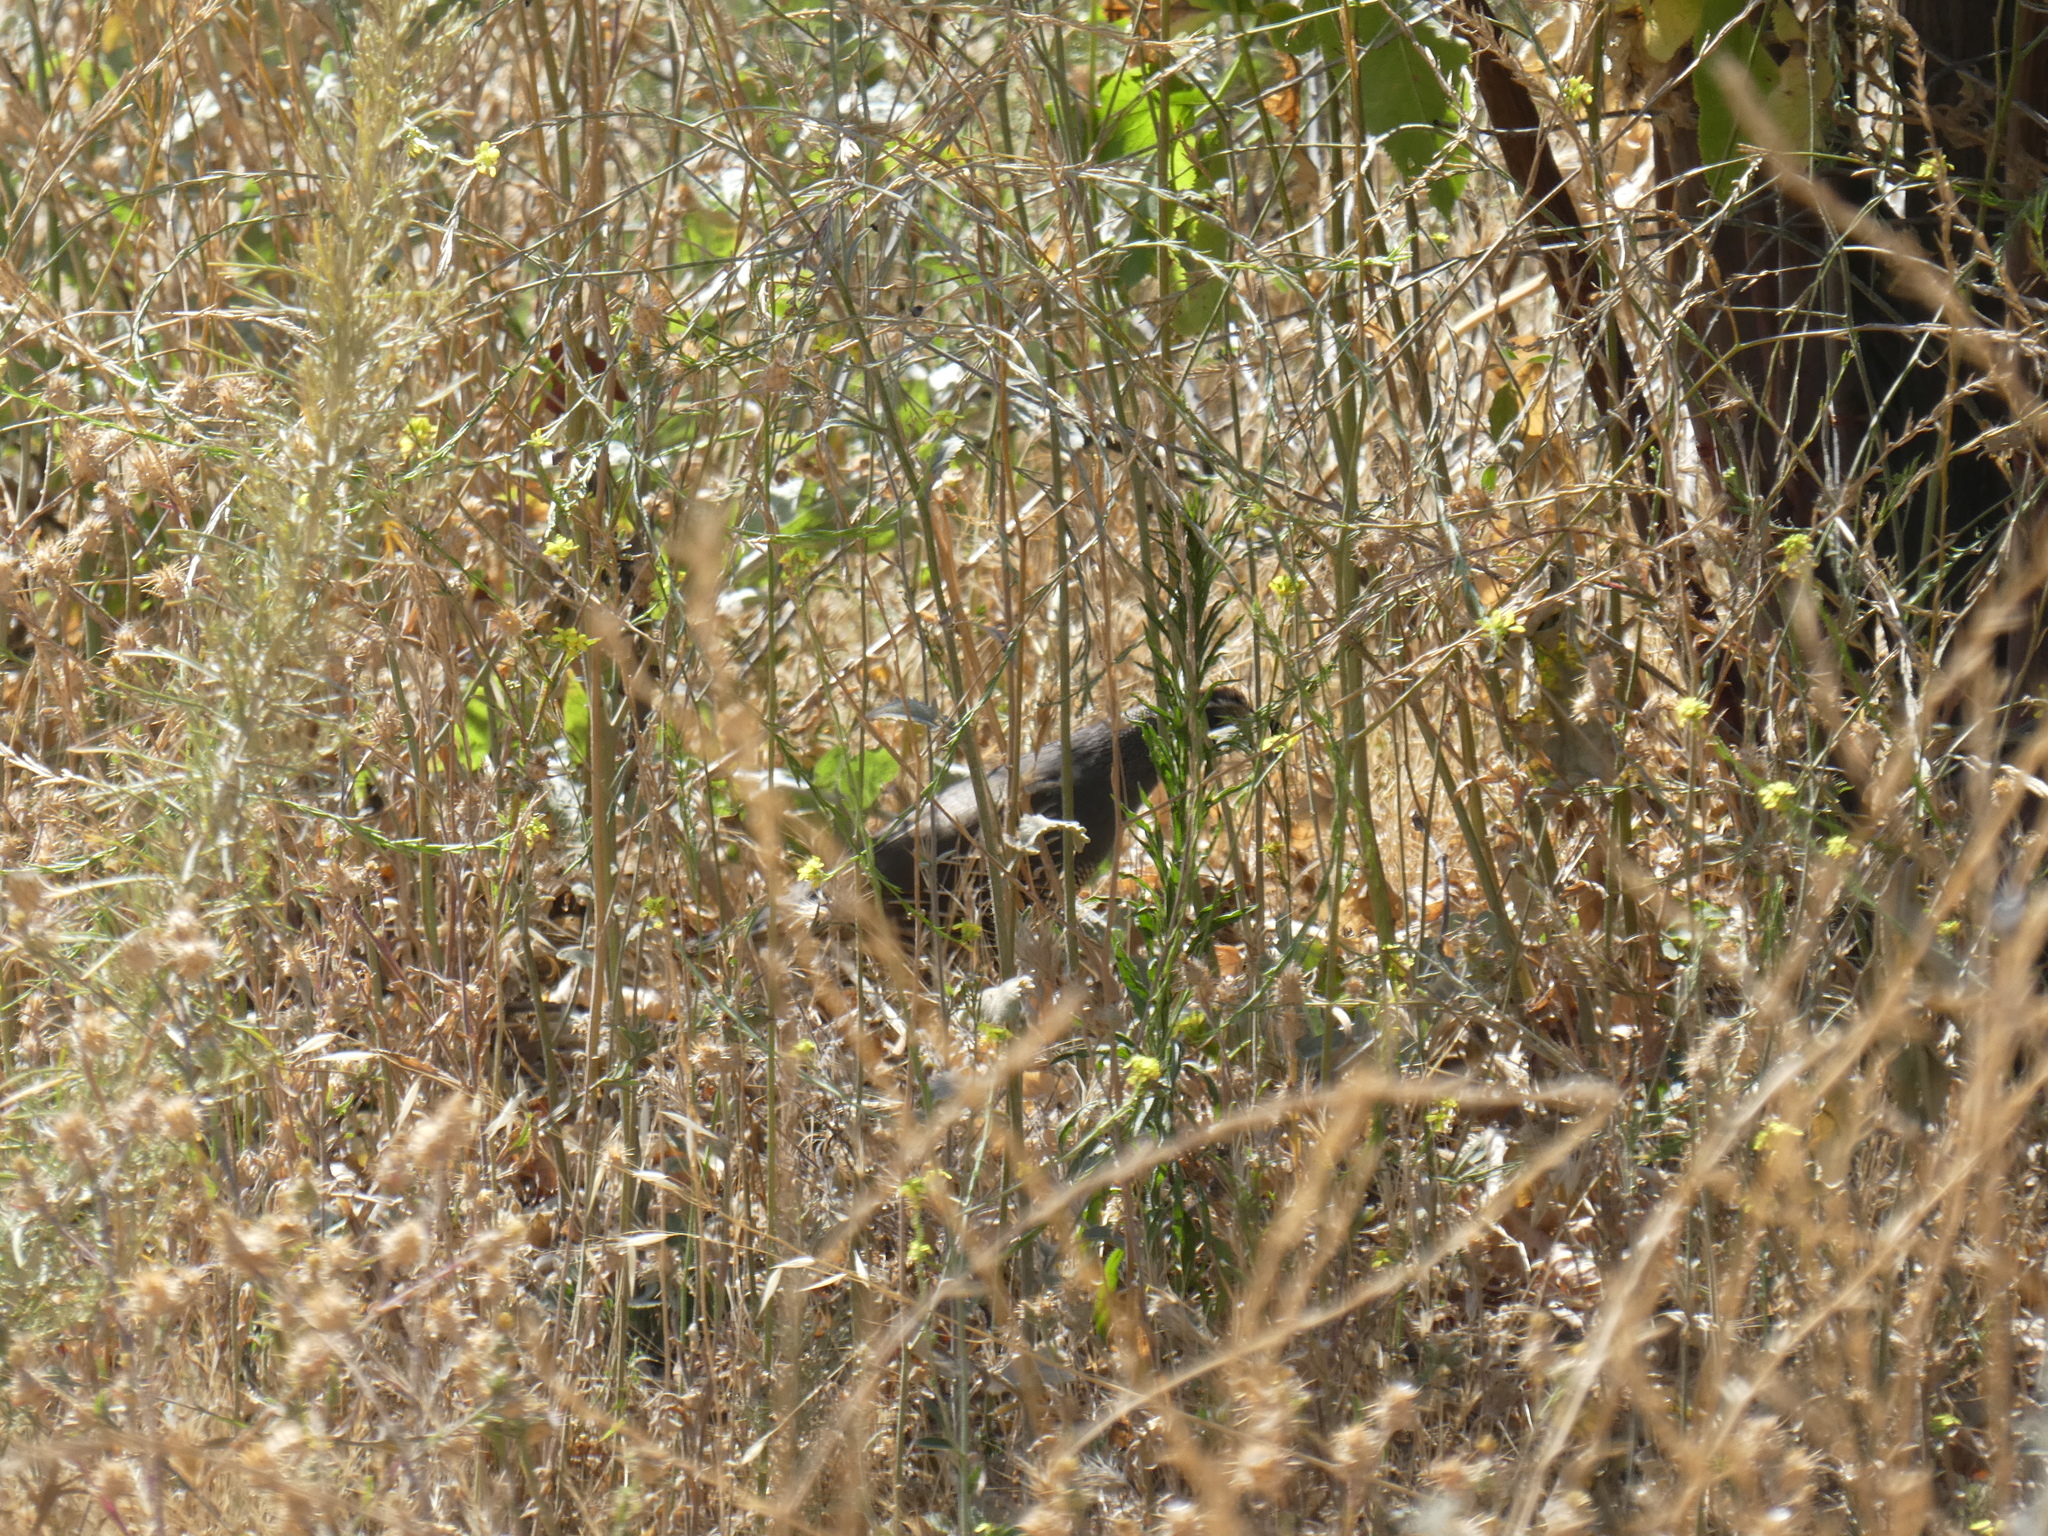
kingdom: Animalia
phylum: Chordata
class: Aves
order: Galliformes
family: Odontophoridae
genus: Callipepla
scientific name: Callipepla californica
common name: California quail
